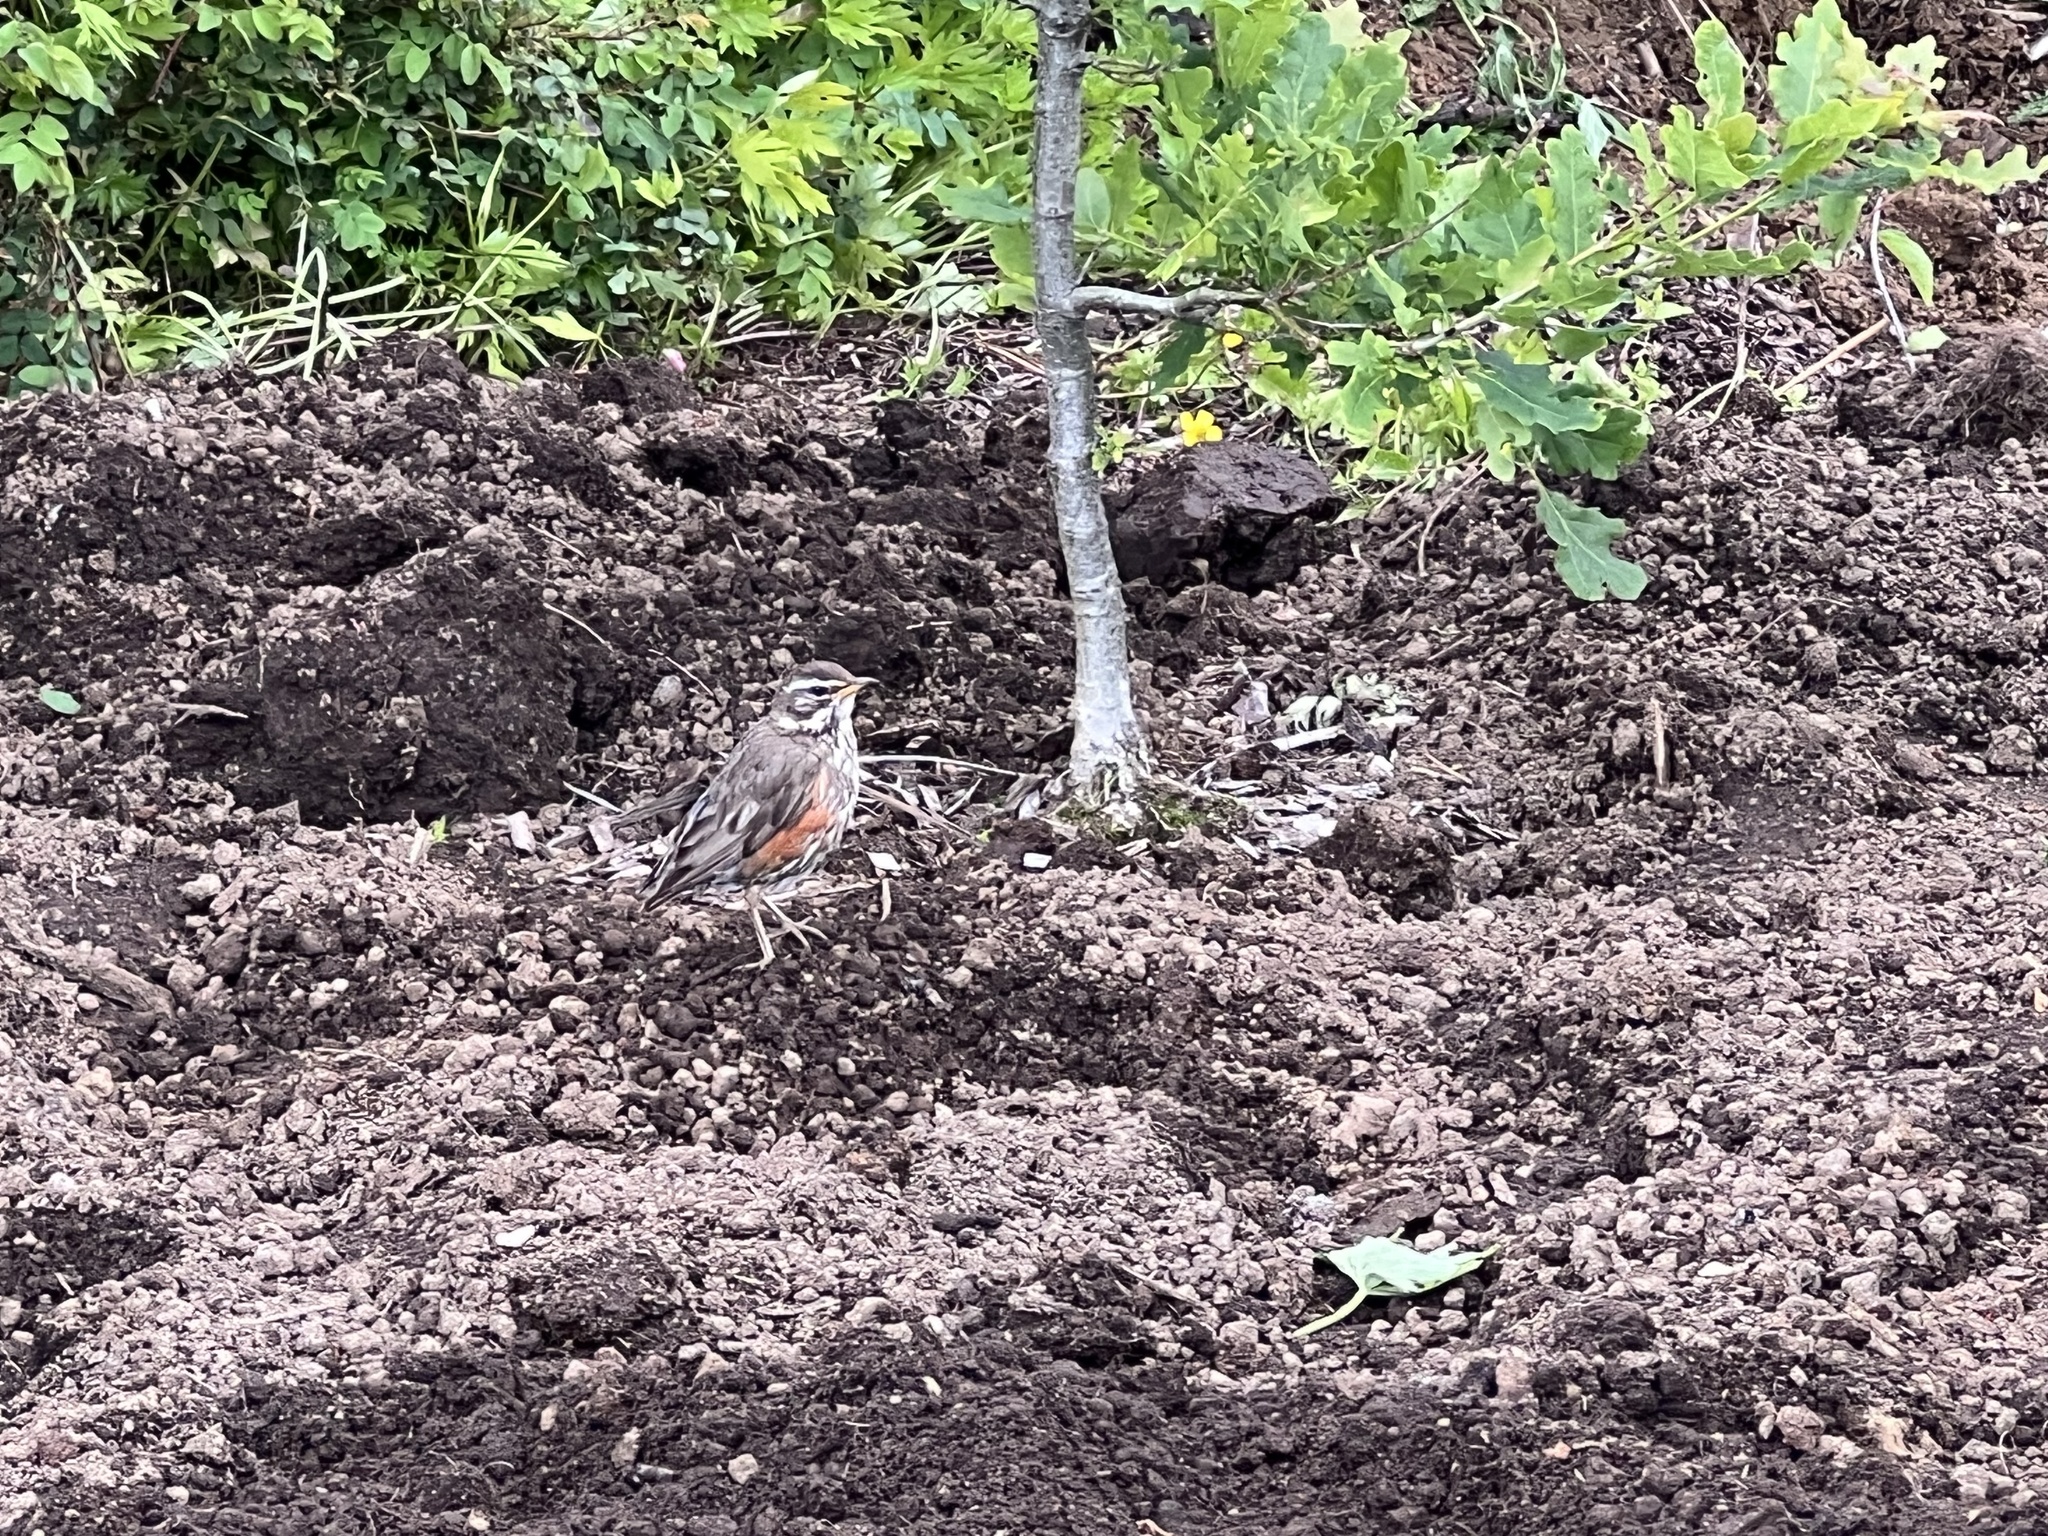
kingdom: Animalia
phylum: Chordata
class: Aves
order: Passeriformes
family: Turdidae
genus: Turdus
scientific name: Turdus iliacus
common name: Redwing
